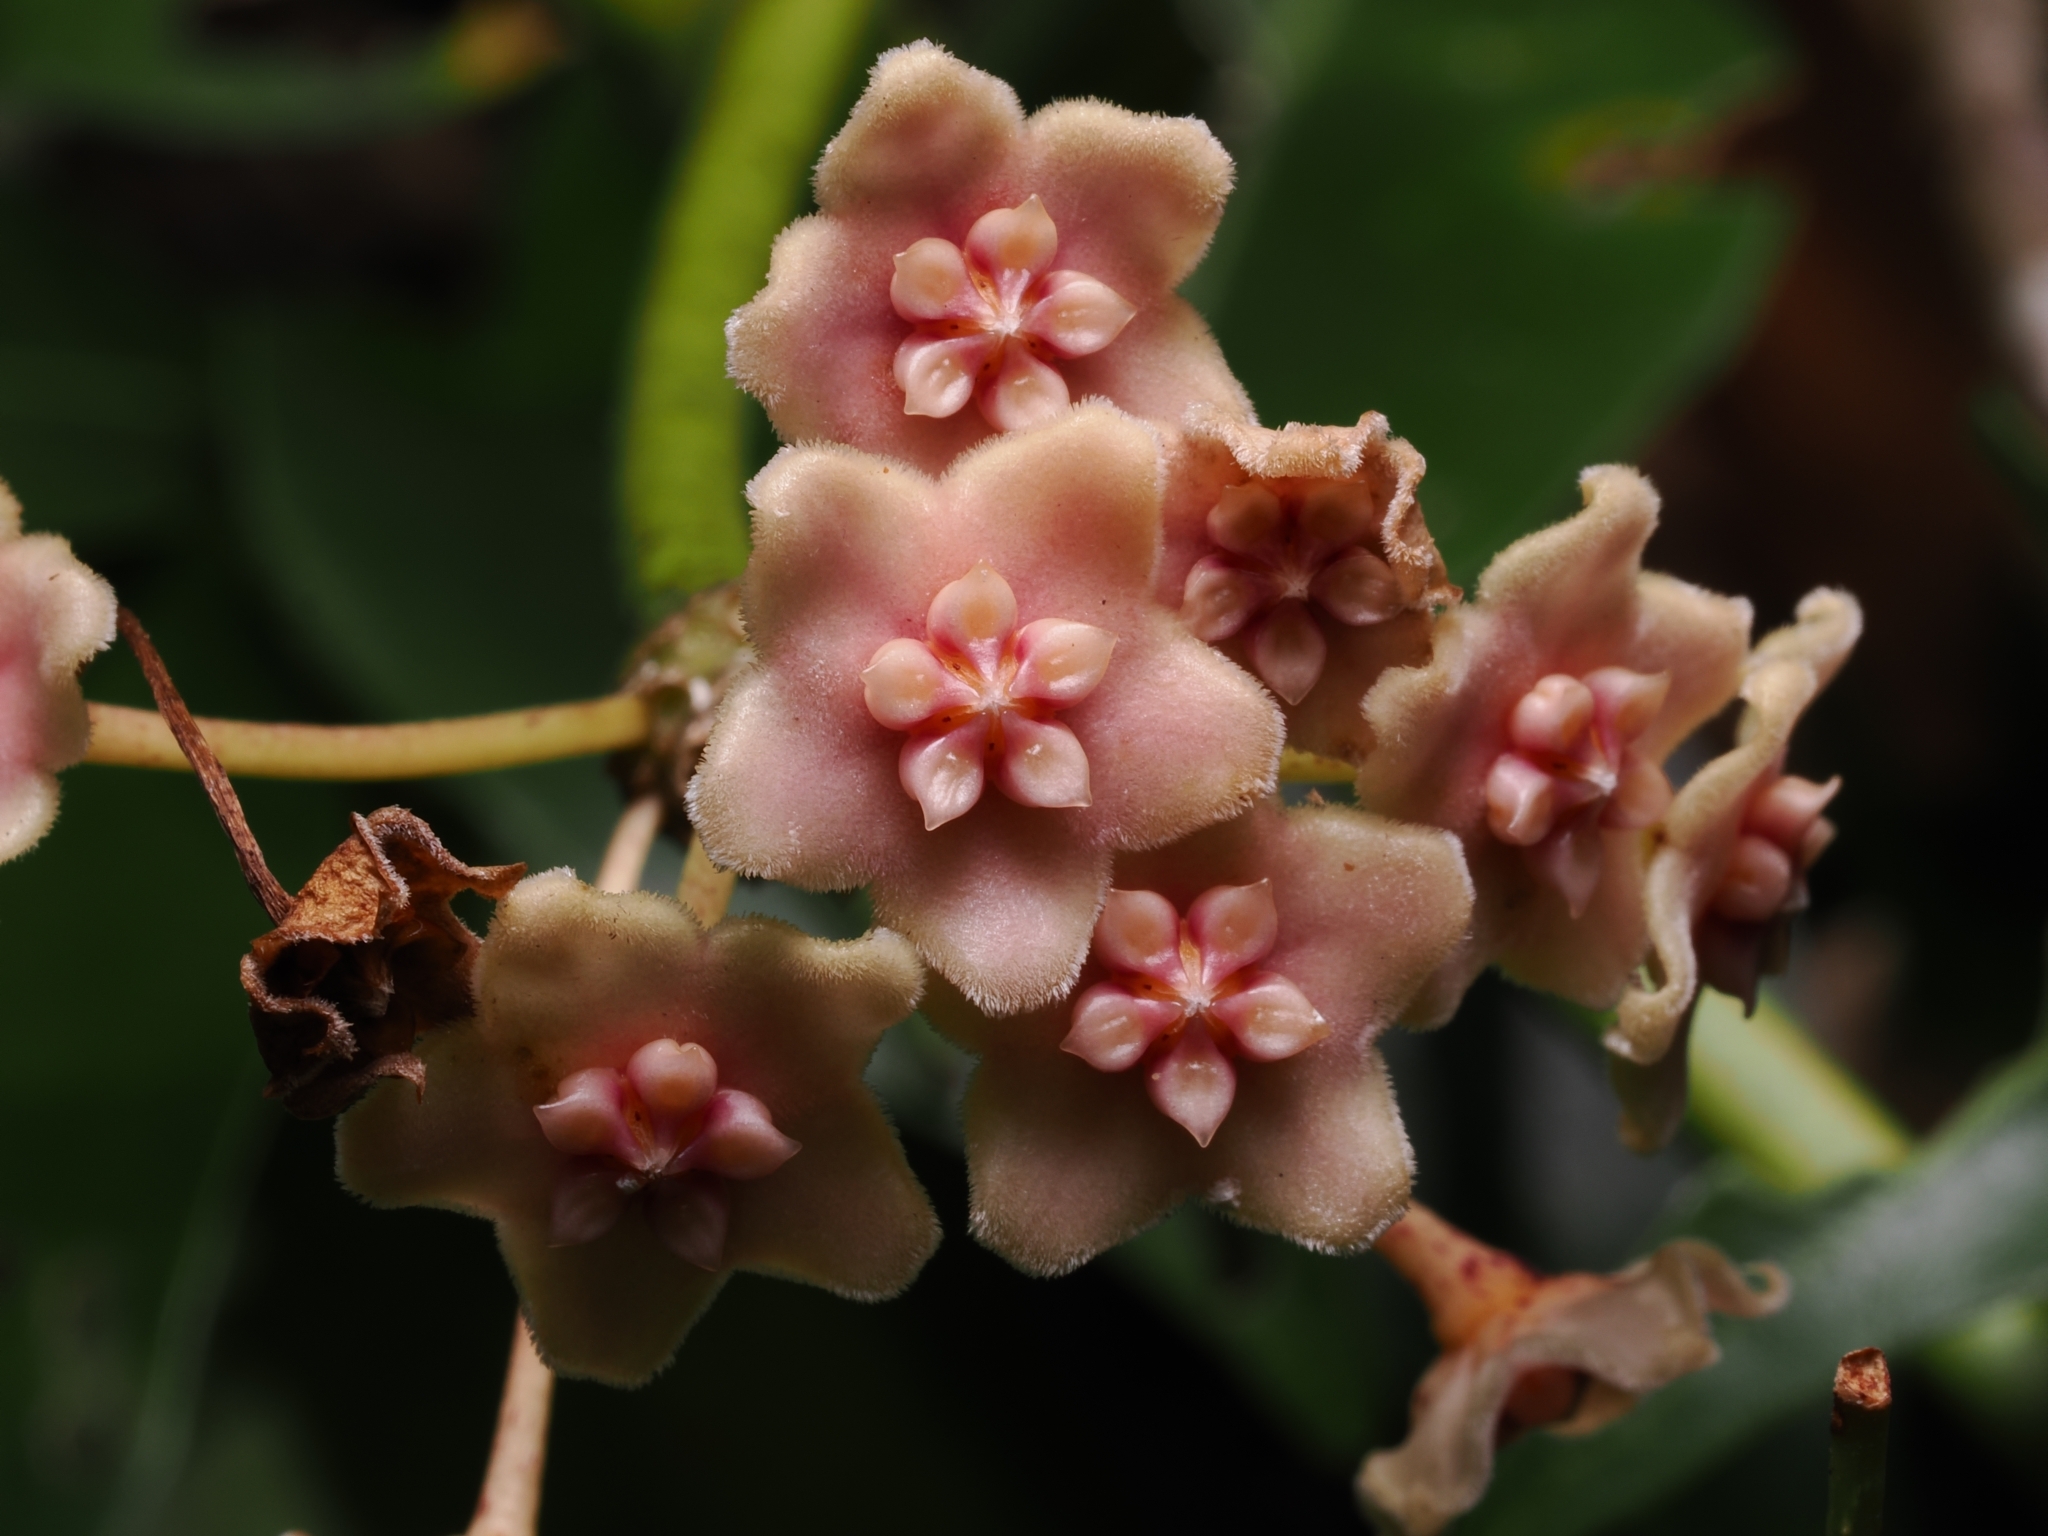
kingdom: Plantae
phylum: Tracheophyta
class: Magnoliopsida
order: Gentianales
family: Apocynaceae
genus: Hoya
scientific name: Hoya diversifolia
